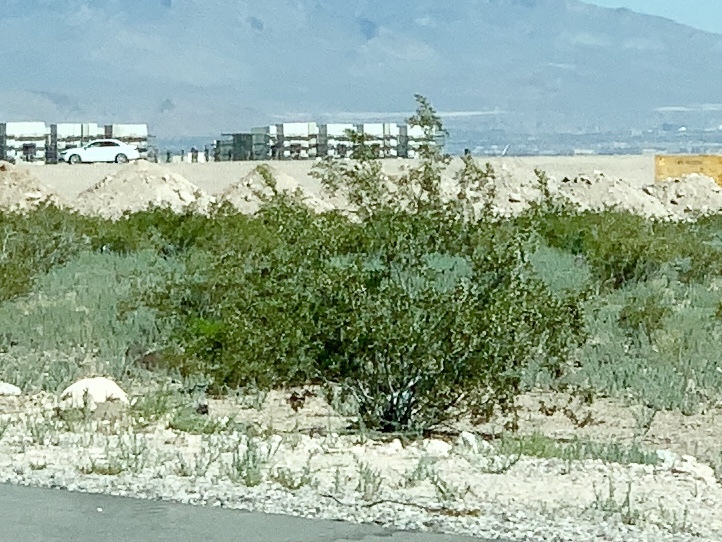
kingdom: Plantae
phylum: Tracheophyta
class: Magnoliopsida
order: Zygophyllales
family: Zygophyllaceae
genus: Larrea
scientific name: Larrea tridentata
